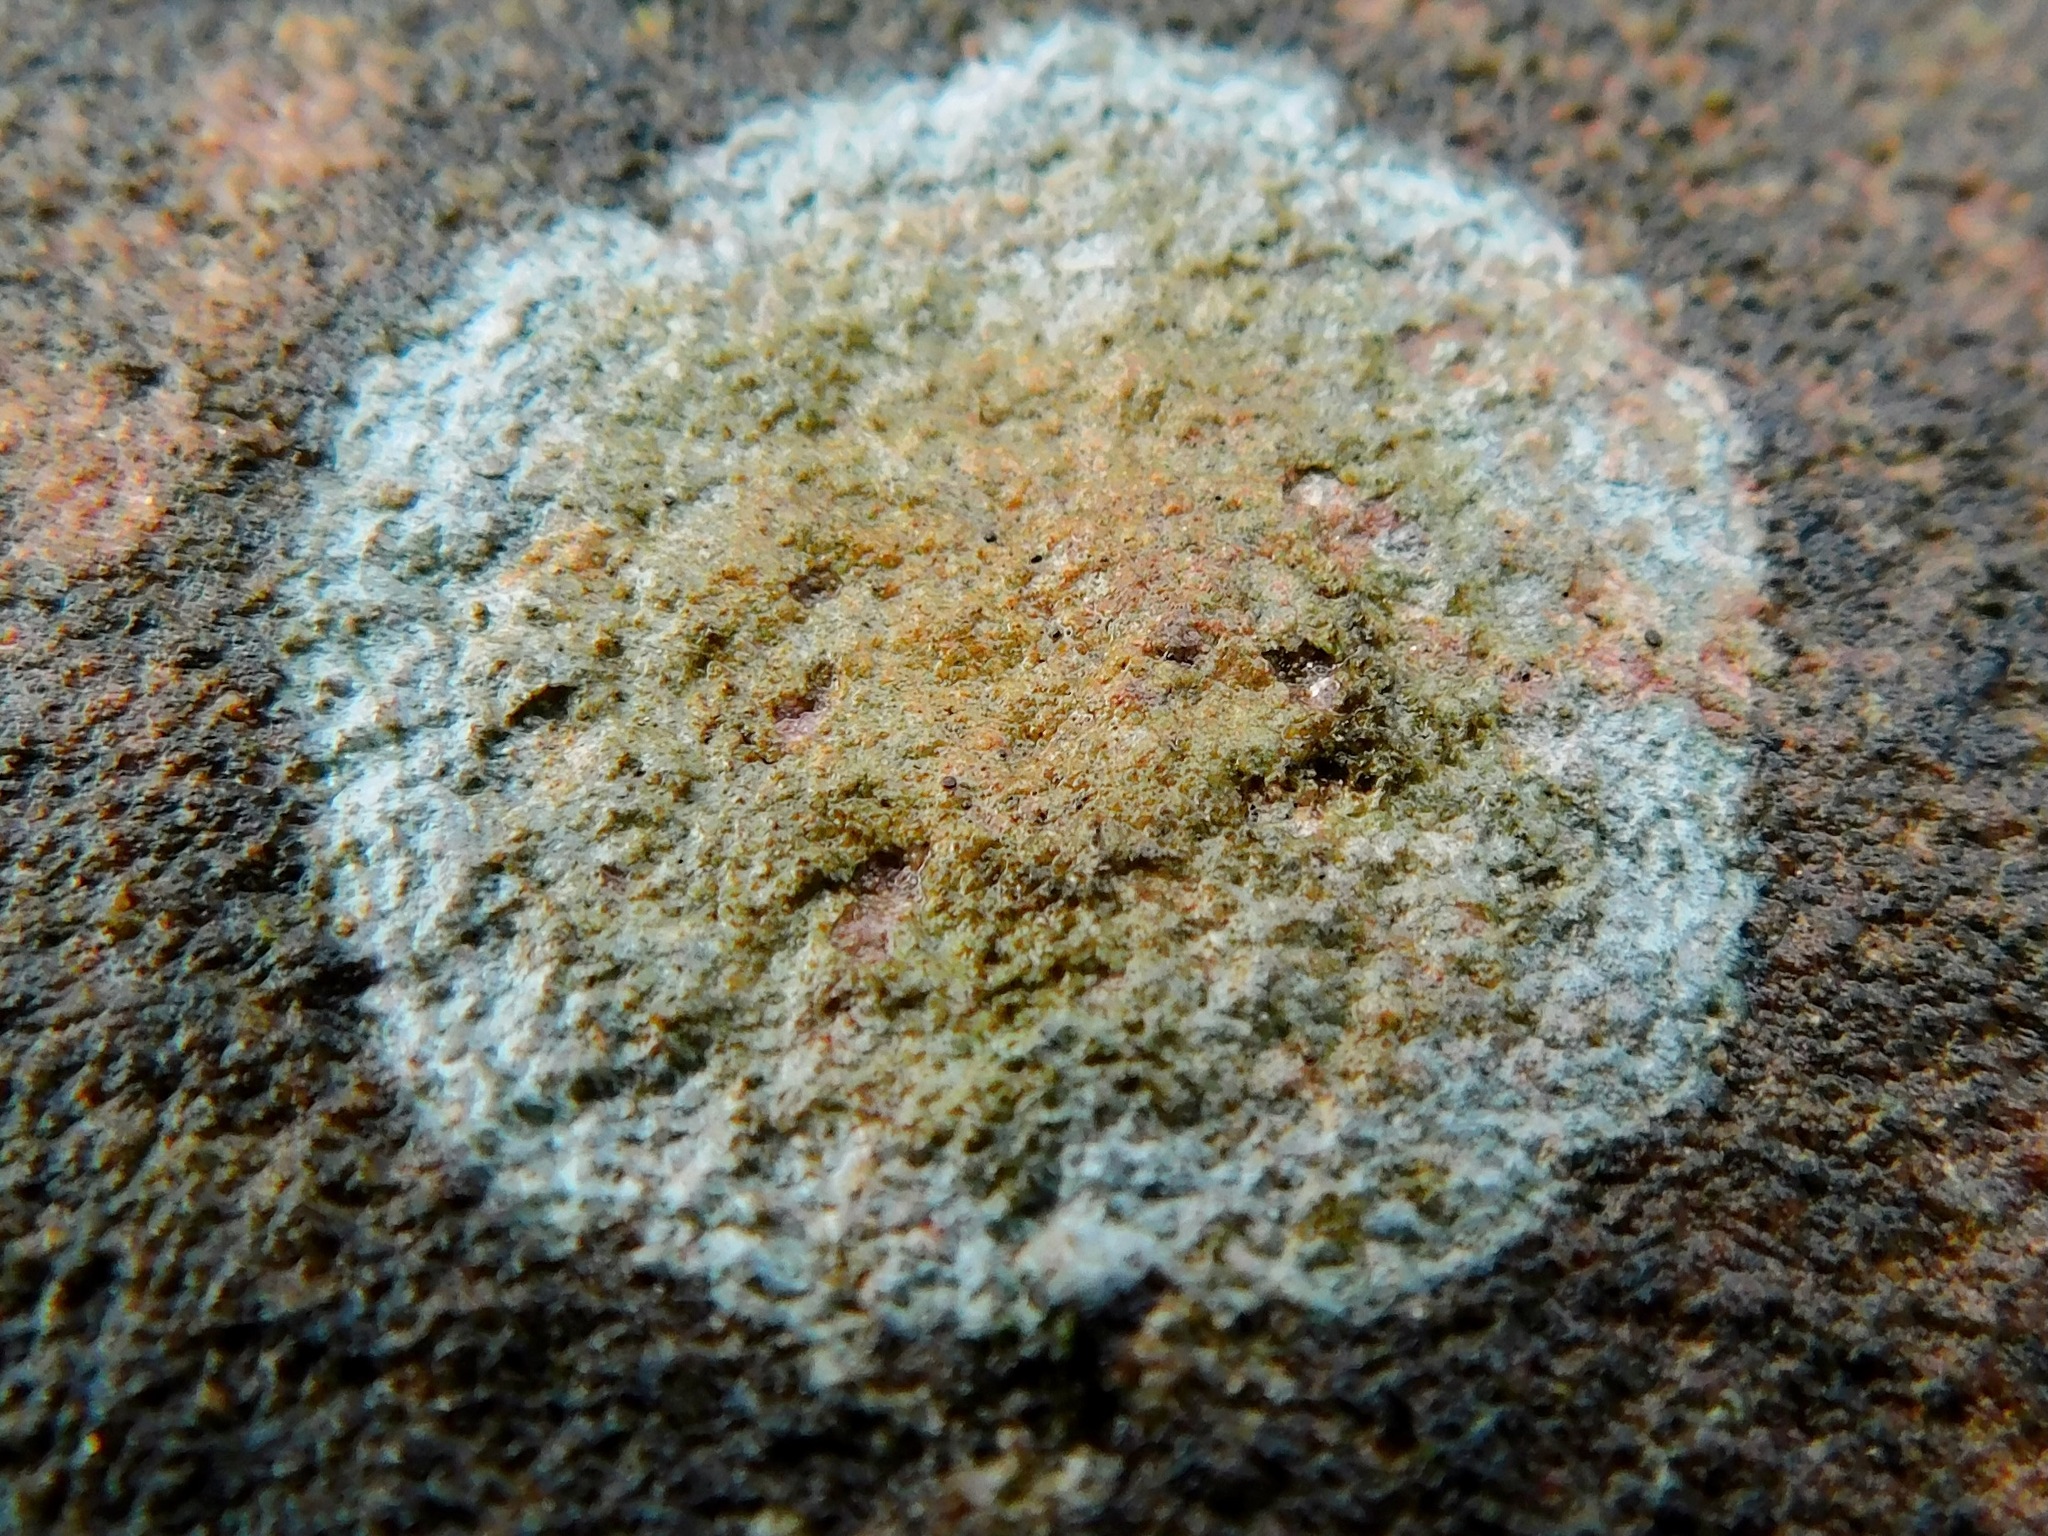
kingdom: Fungi
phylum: Ascomycota
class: Lecanoromycetes
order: Lecideales
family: Lecideaceae
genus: Porpidia
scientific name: Porpidia ochrolemma
